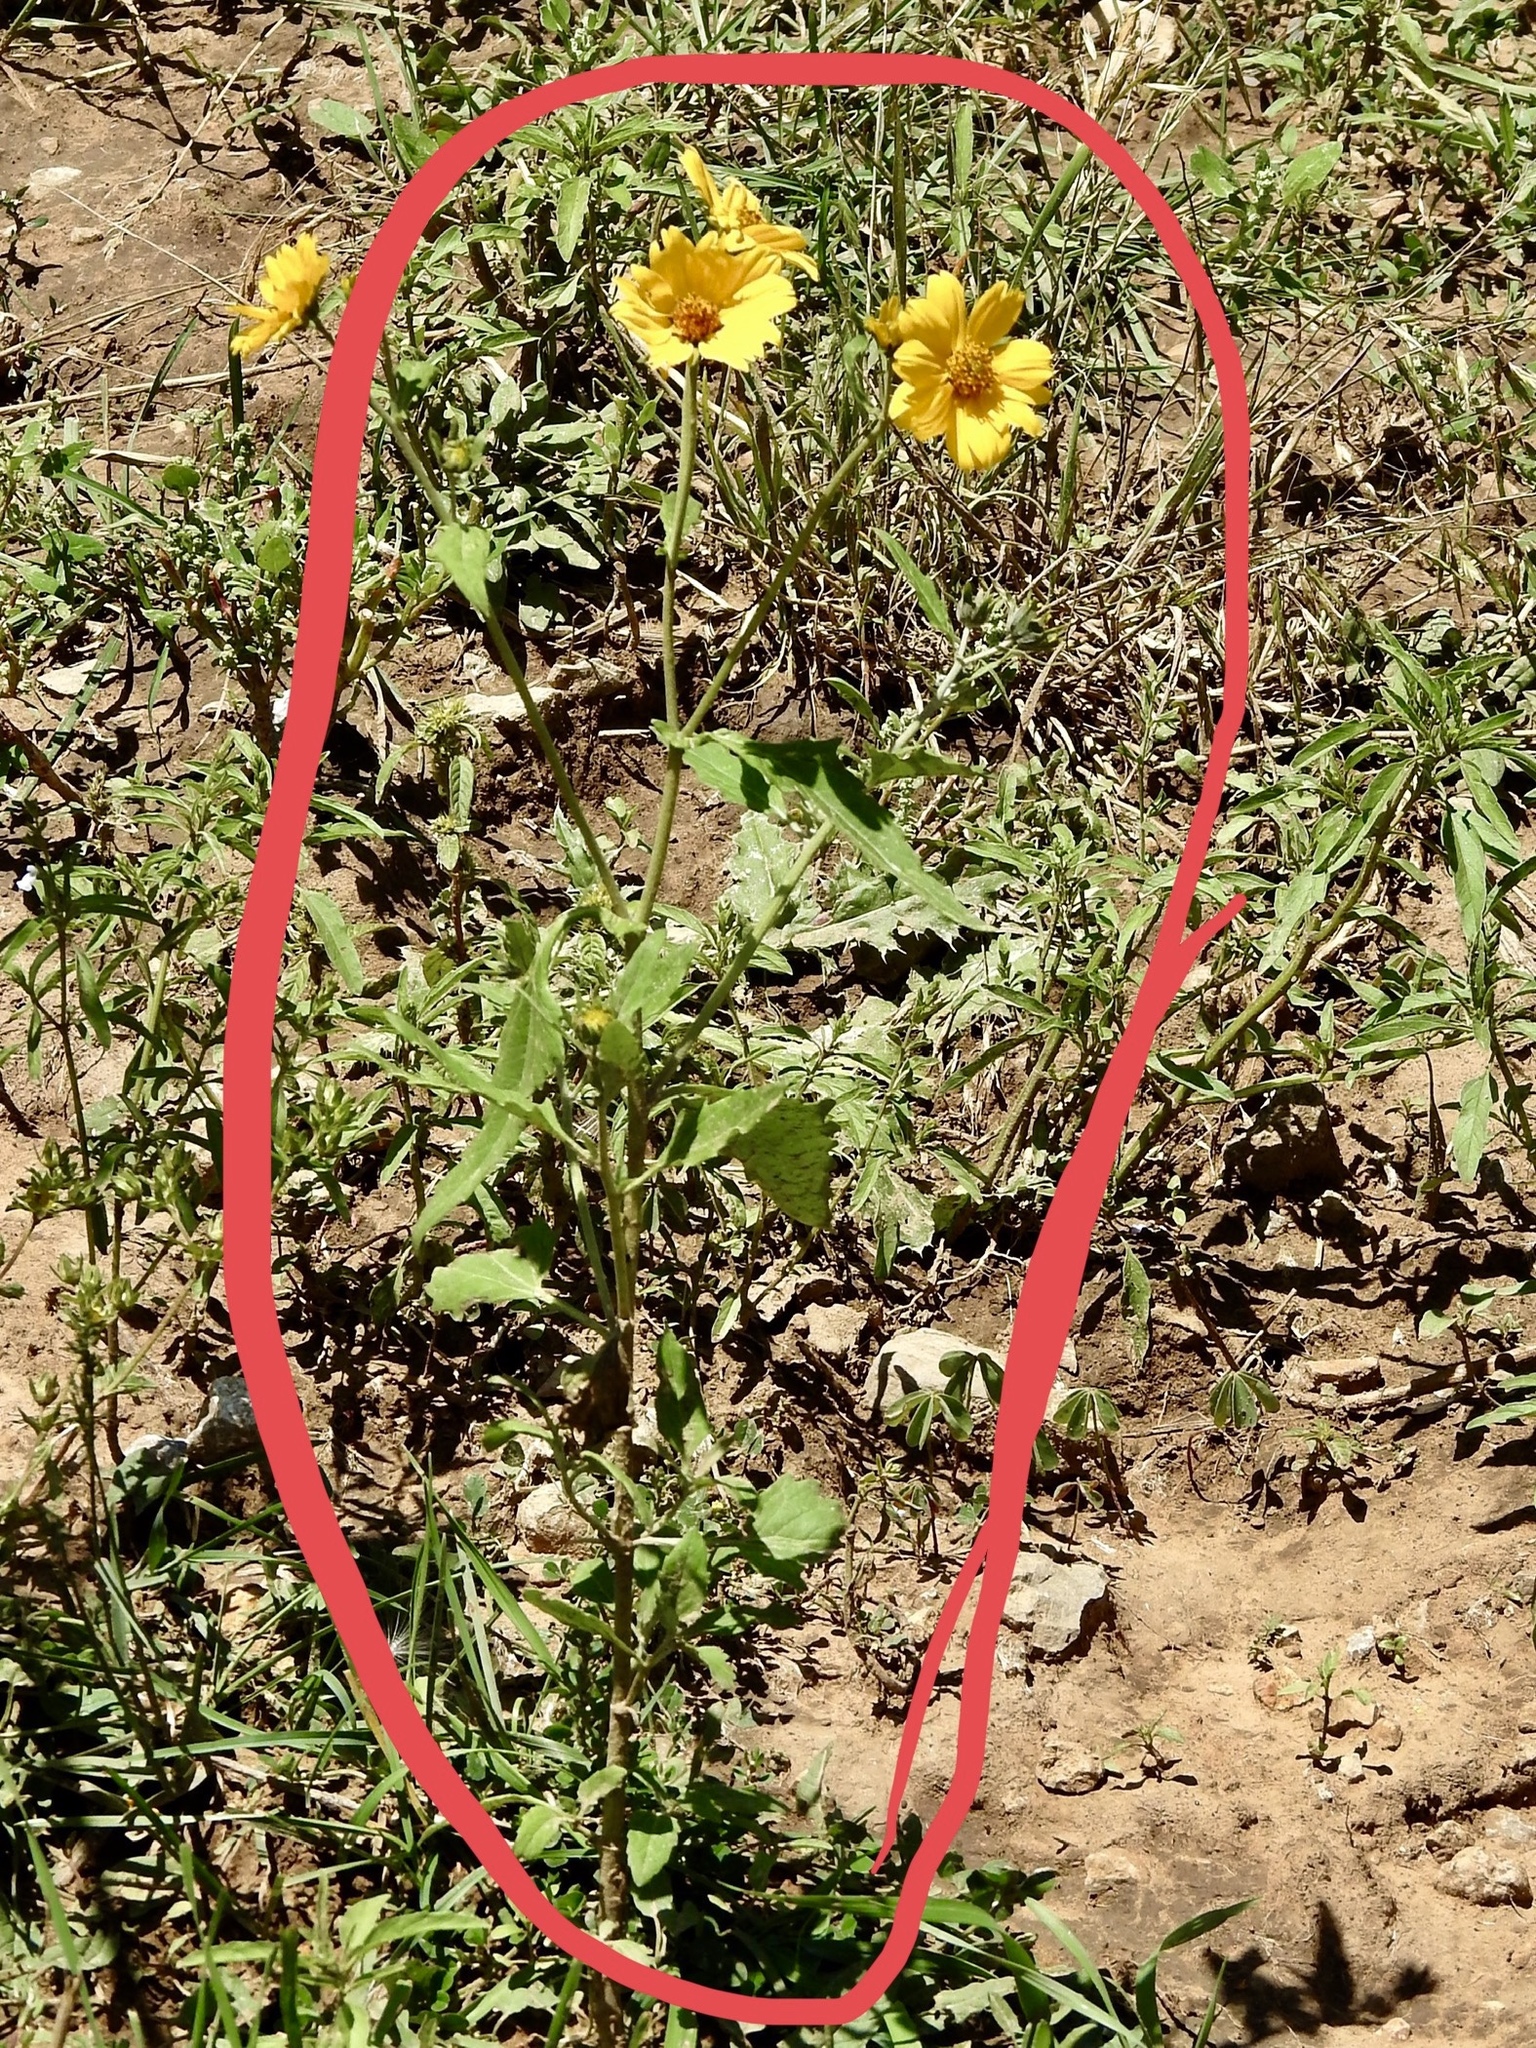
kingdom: Plantae
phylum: Tracheophyta
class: Magnoliopsida
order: Asterales
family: Asteraceae
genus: Verbesina
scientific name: Verbesina encelioides
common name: Golden crownbeard
